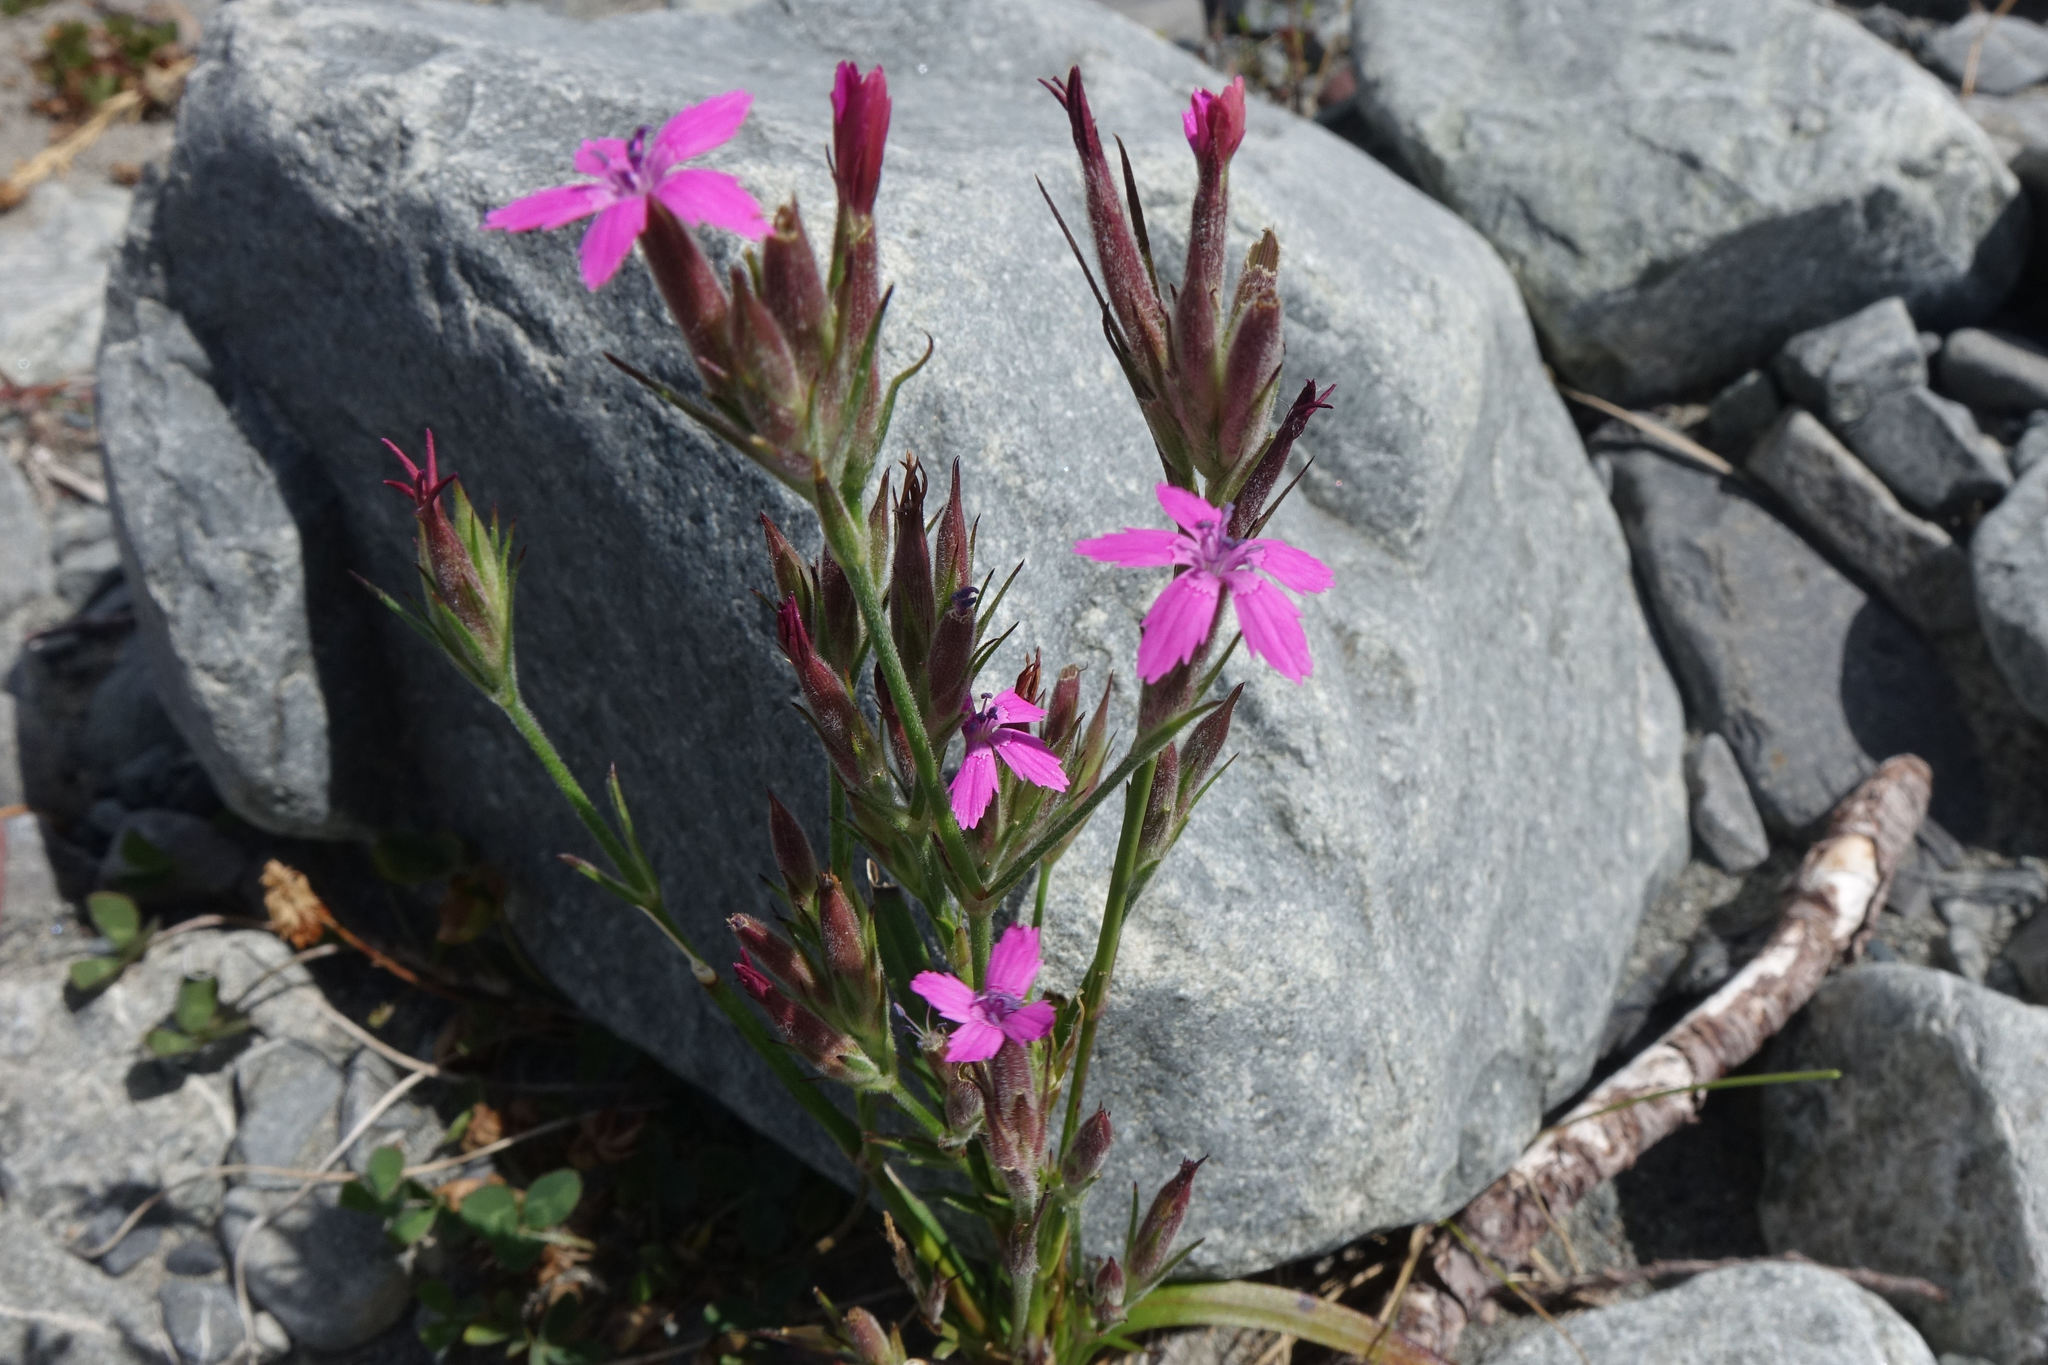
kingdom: Plantae
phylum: Tracheophyta
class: Magnoliopsida
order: Caryophyllales
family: Caryophyllaceae
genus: Dianthus
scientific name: Dianthus armeria
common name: Deptford pink
